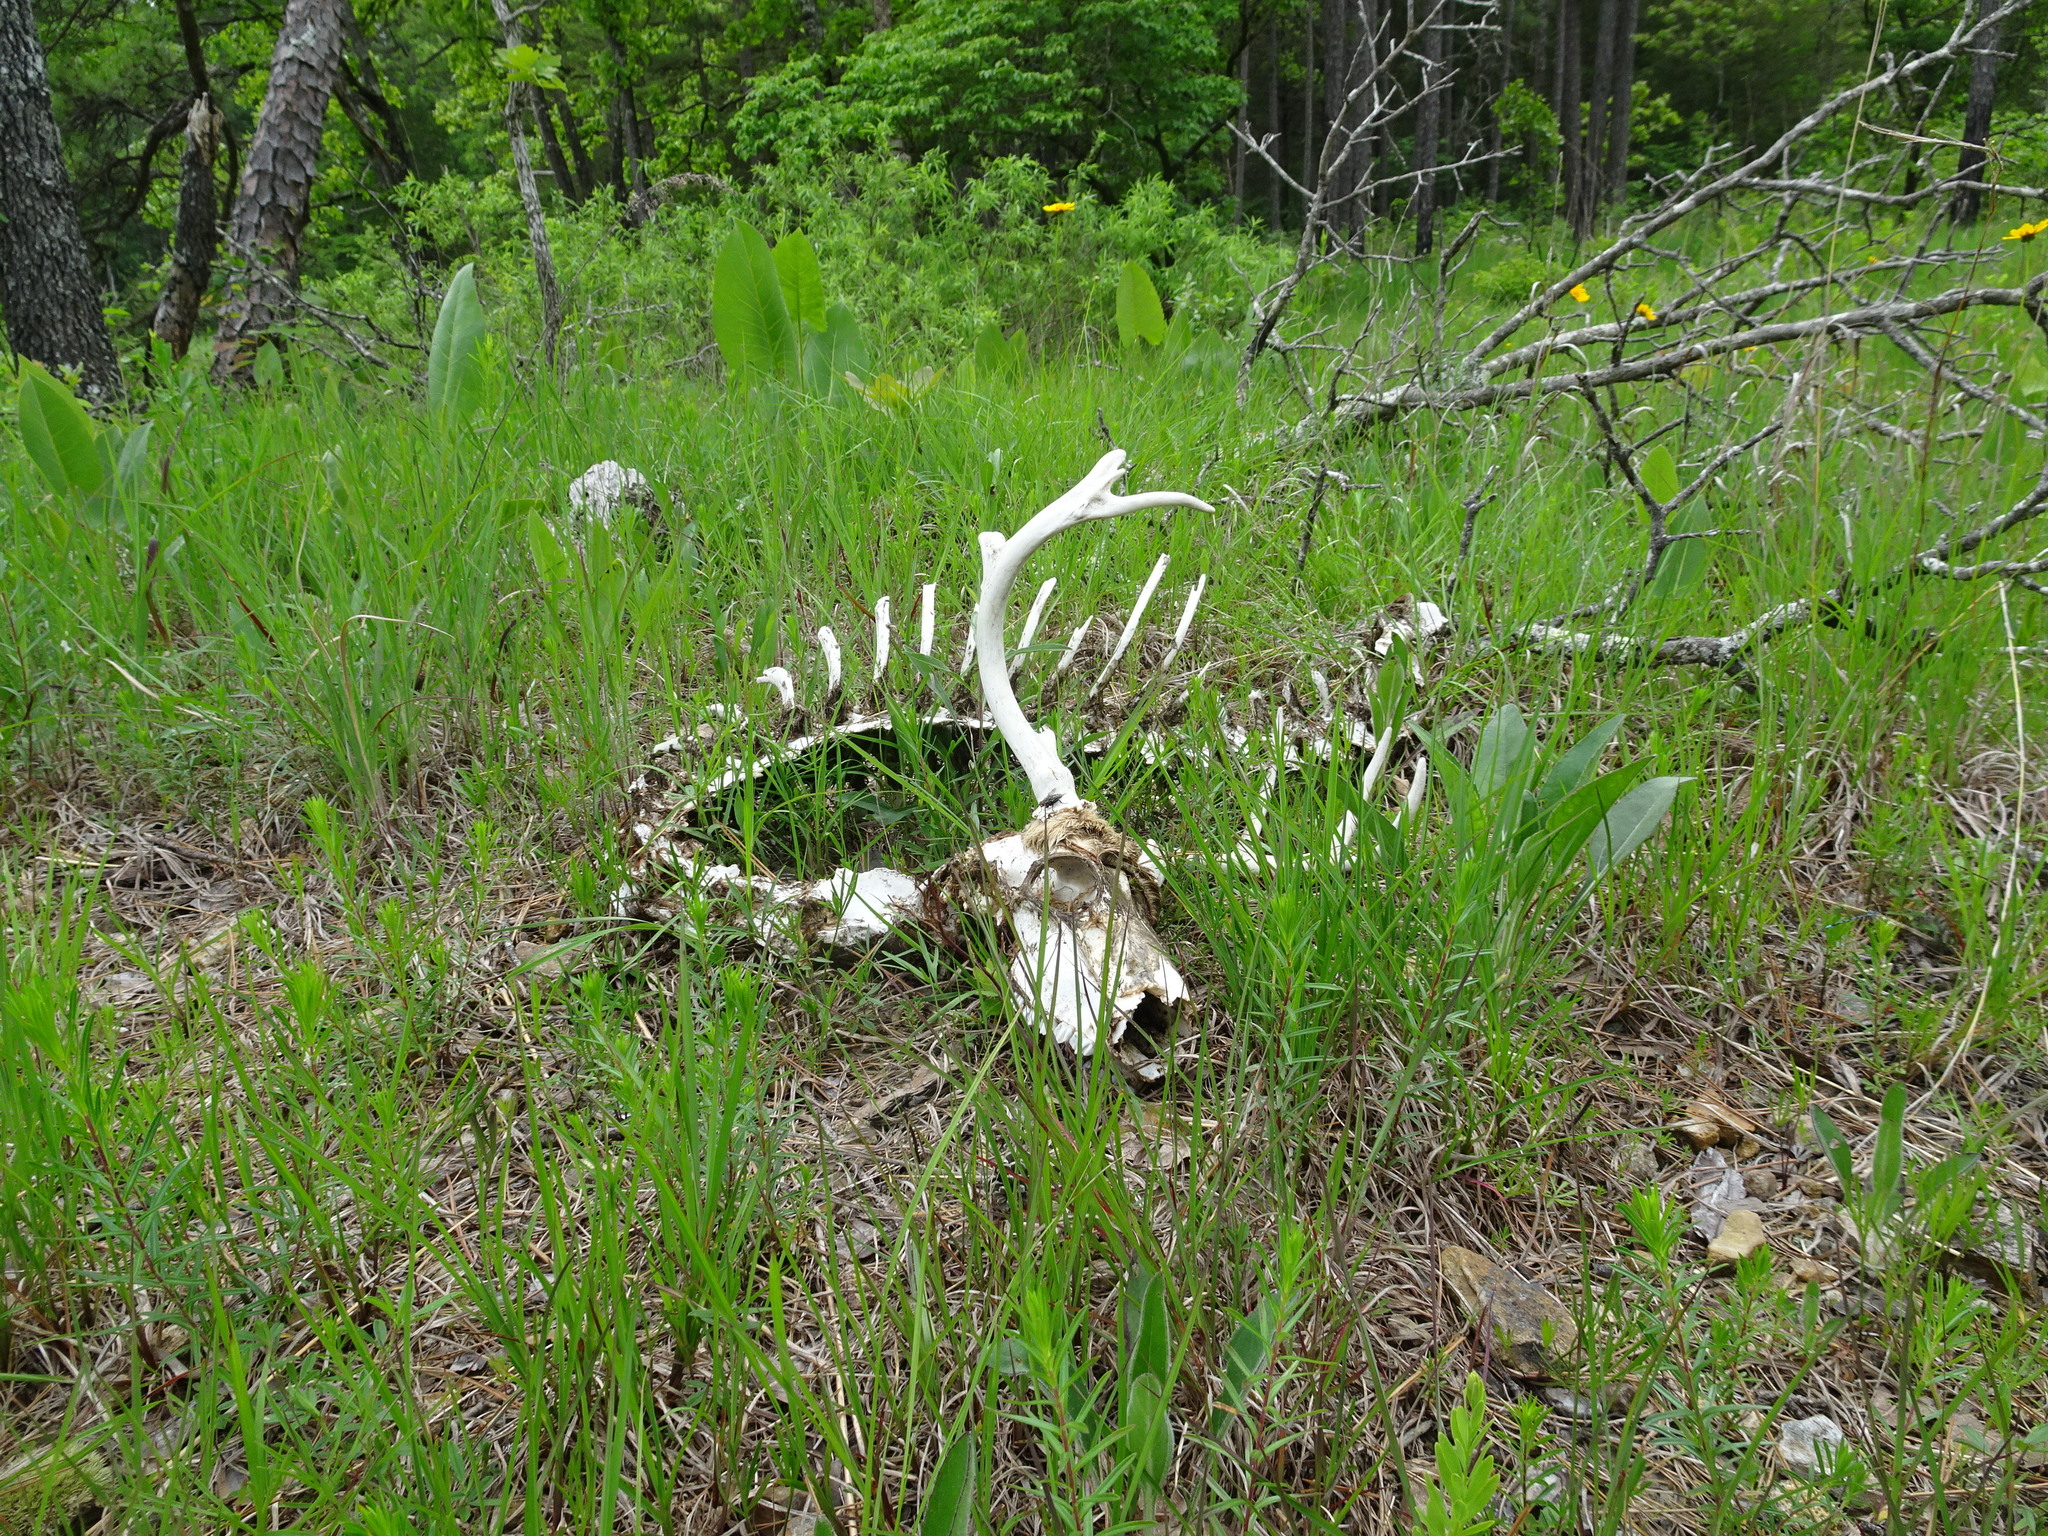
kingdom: Animalia
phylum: Chordata
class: Mammalia
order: Artiodactyla
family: Cervidae
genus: Odocoileus
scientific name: Odocoileus virginianus
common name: White-tailed deer
